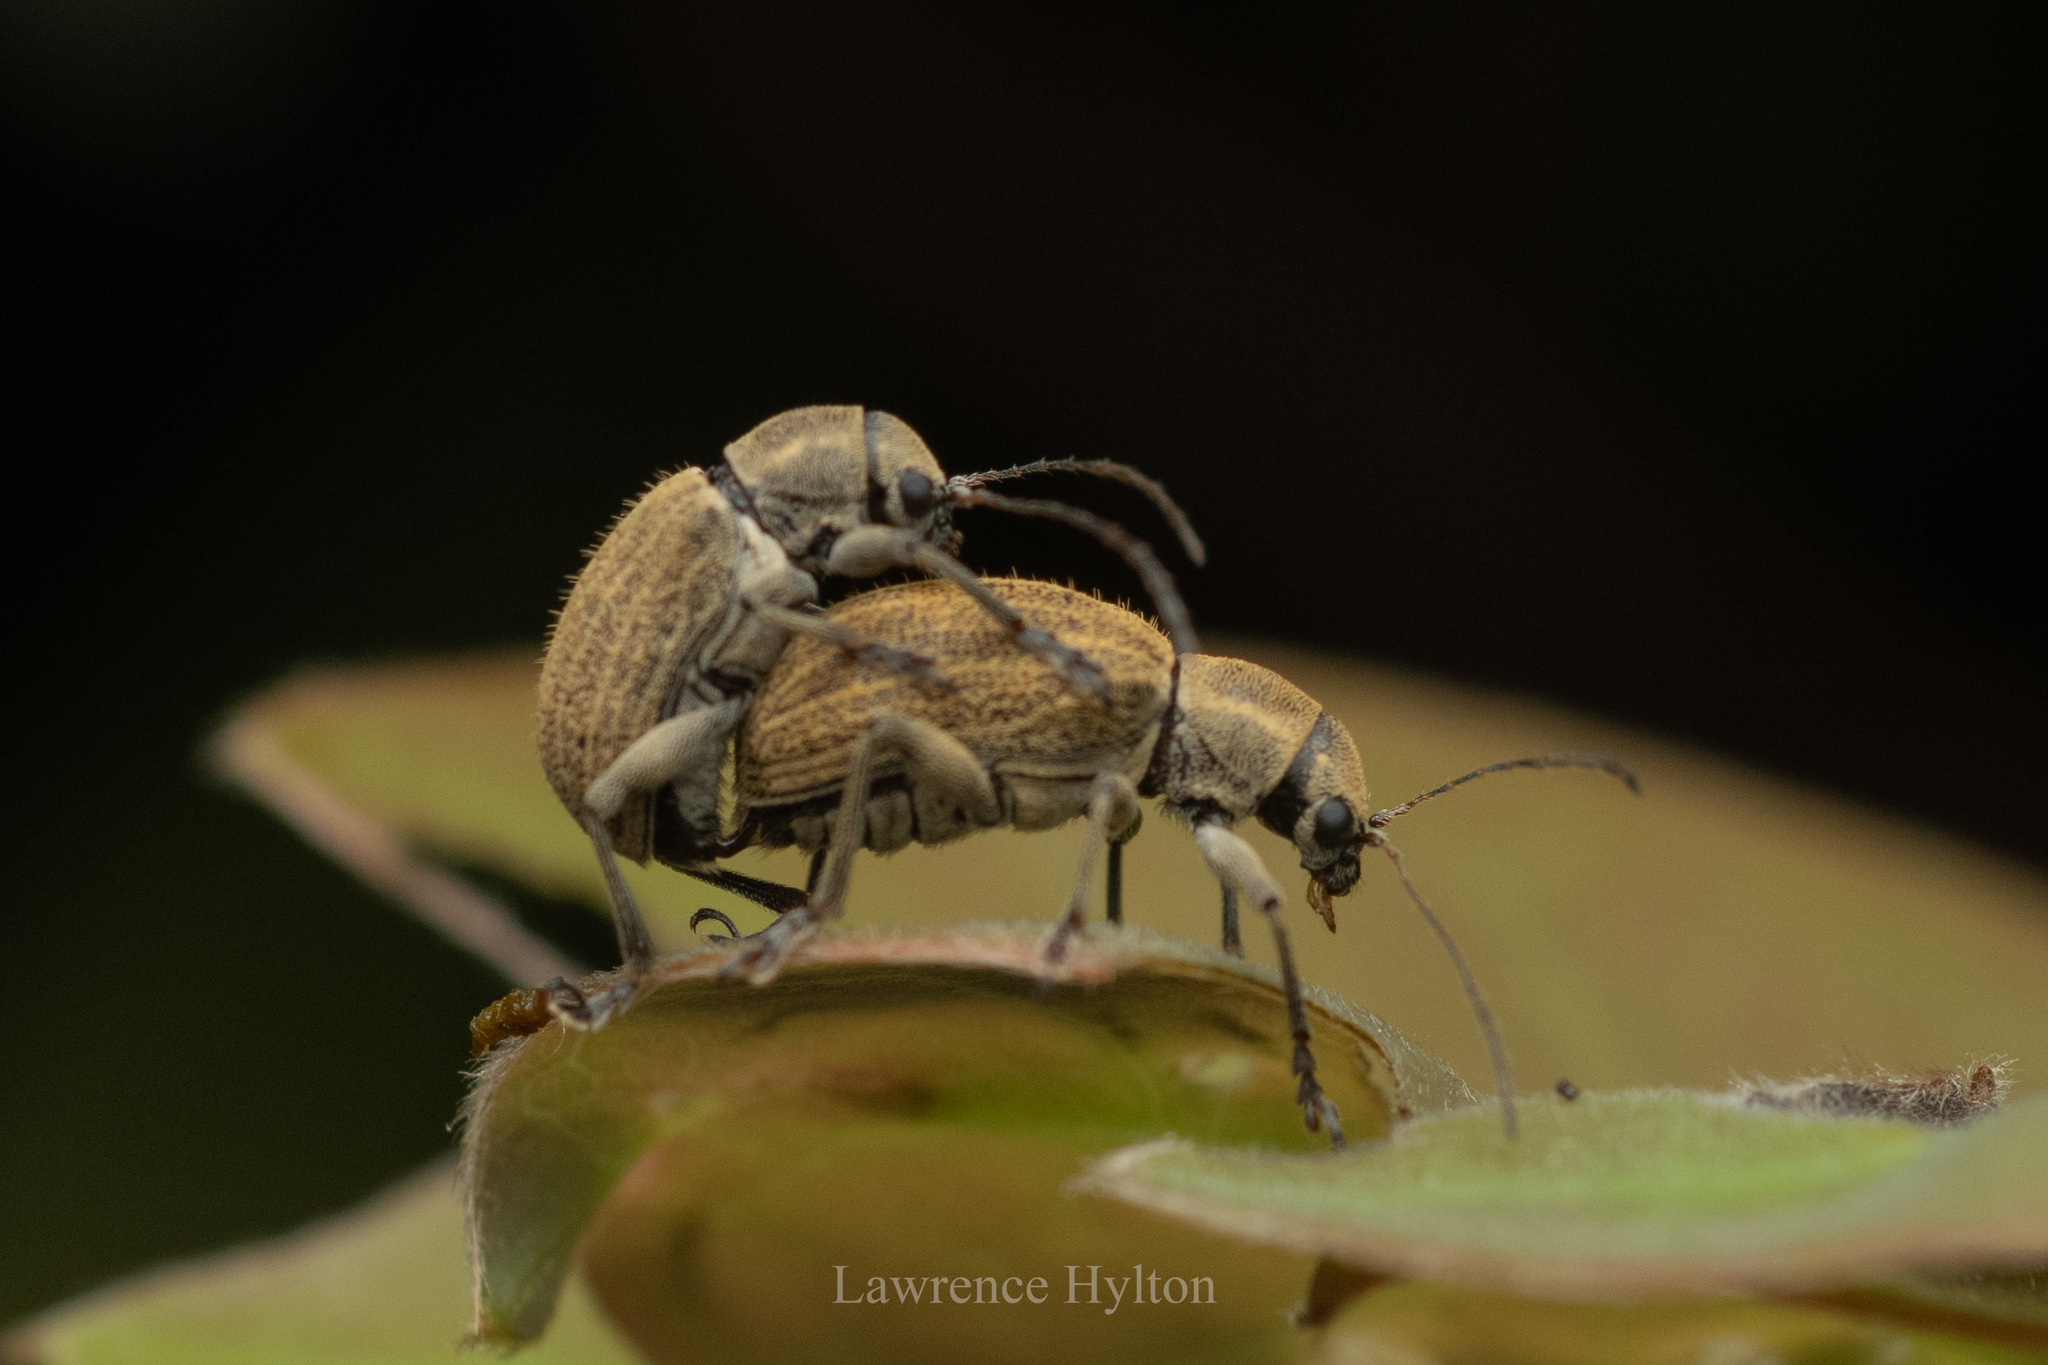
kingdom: Animalia
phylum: Arthropoda
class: Insecta
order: Coleoptera
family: Chrysomelidae
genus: Fidia
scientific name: Fidia
